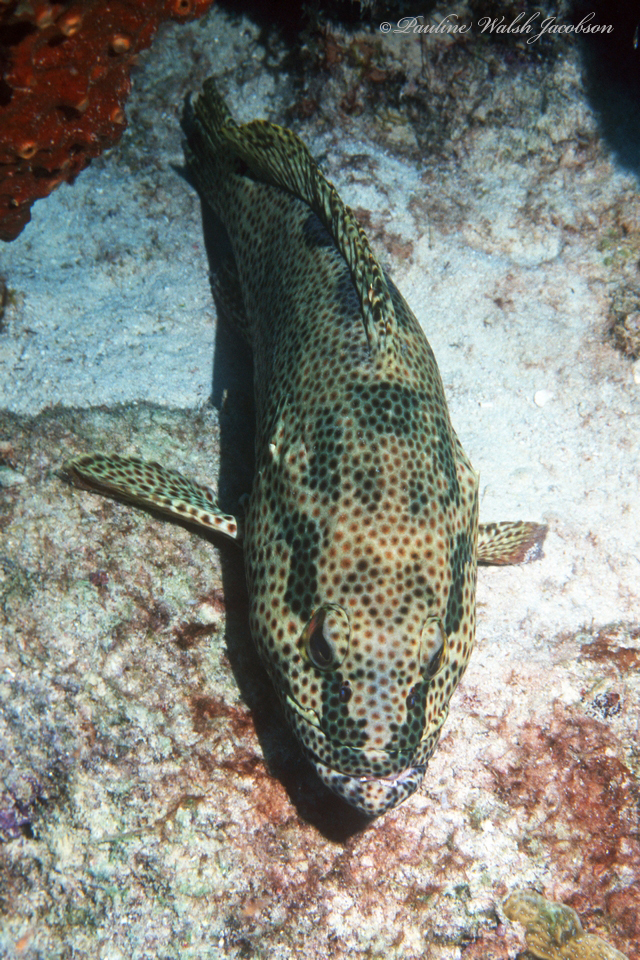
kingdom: Animalia
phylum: Chordata
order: Perciformes
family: Serranidae
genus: Epinephelus
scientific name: Epinephelus adscensionis
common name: Rock hind
